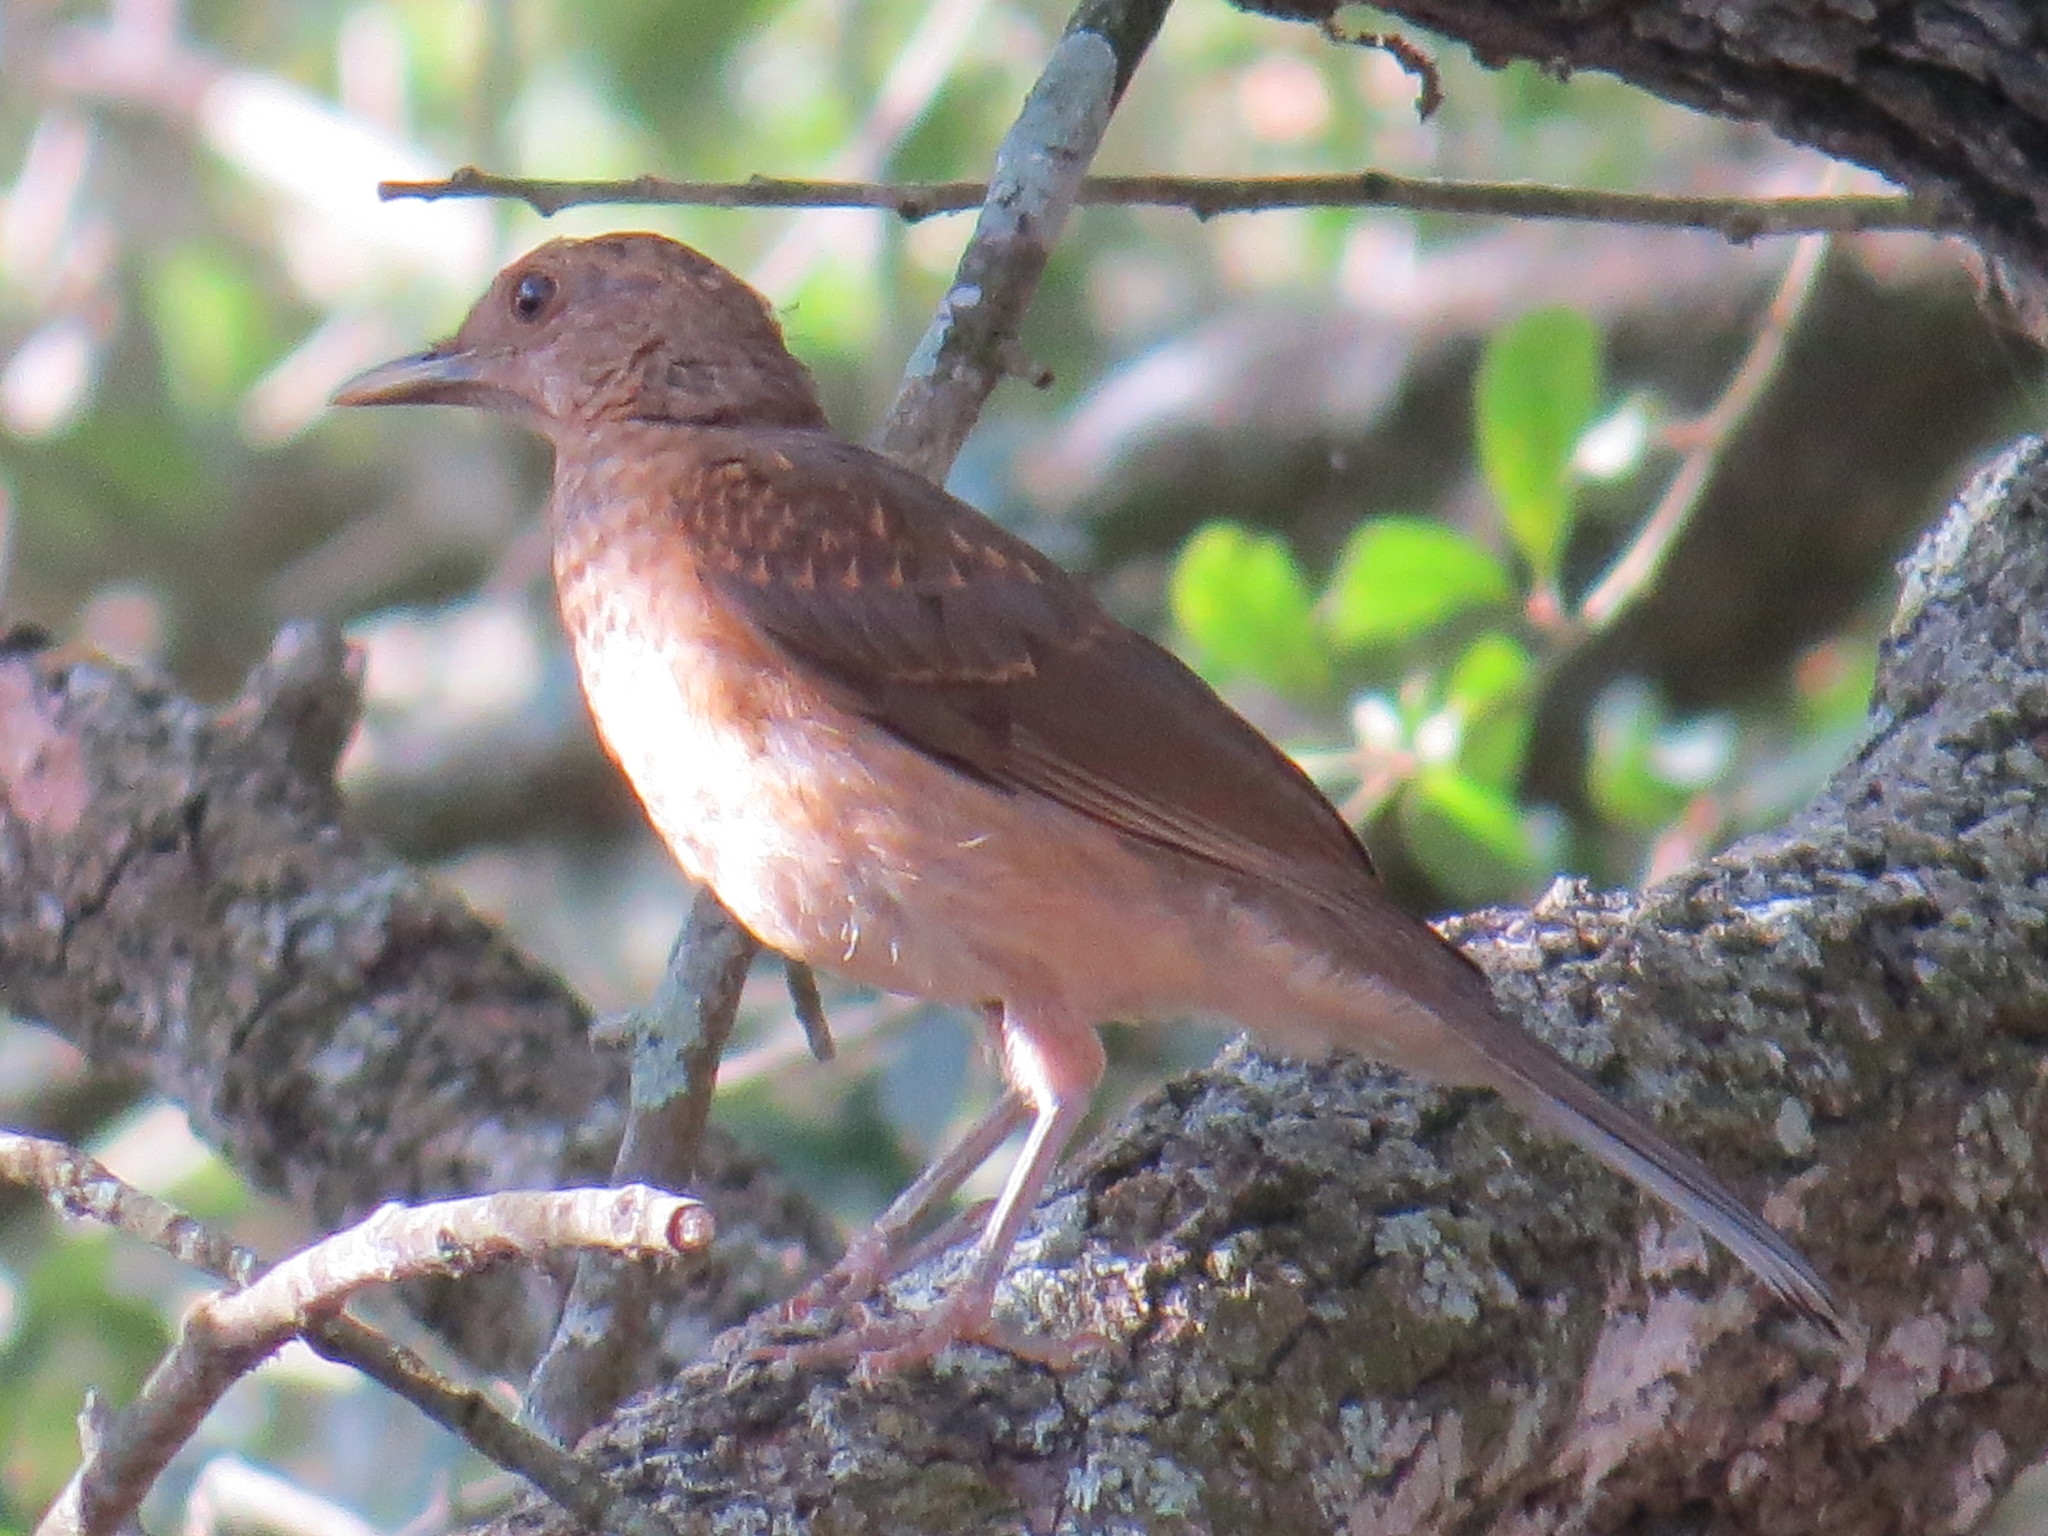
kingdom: Animalia
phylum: Chordata
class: Aves
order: Passeriformes
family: Turdidae
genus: Turdus
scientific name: Turdus grayi
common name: Clay-colored thrush
